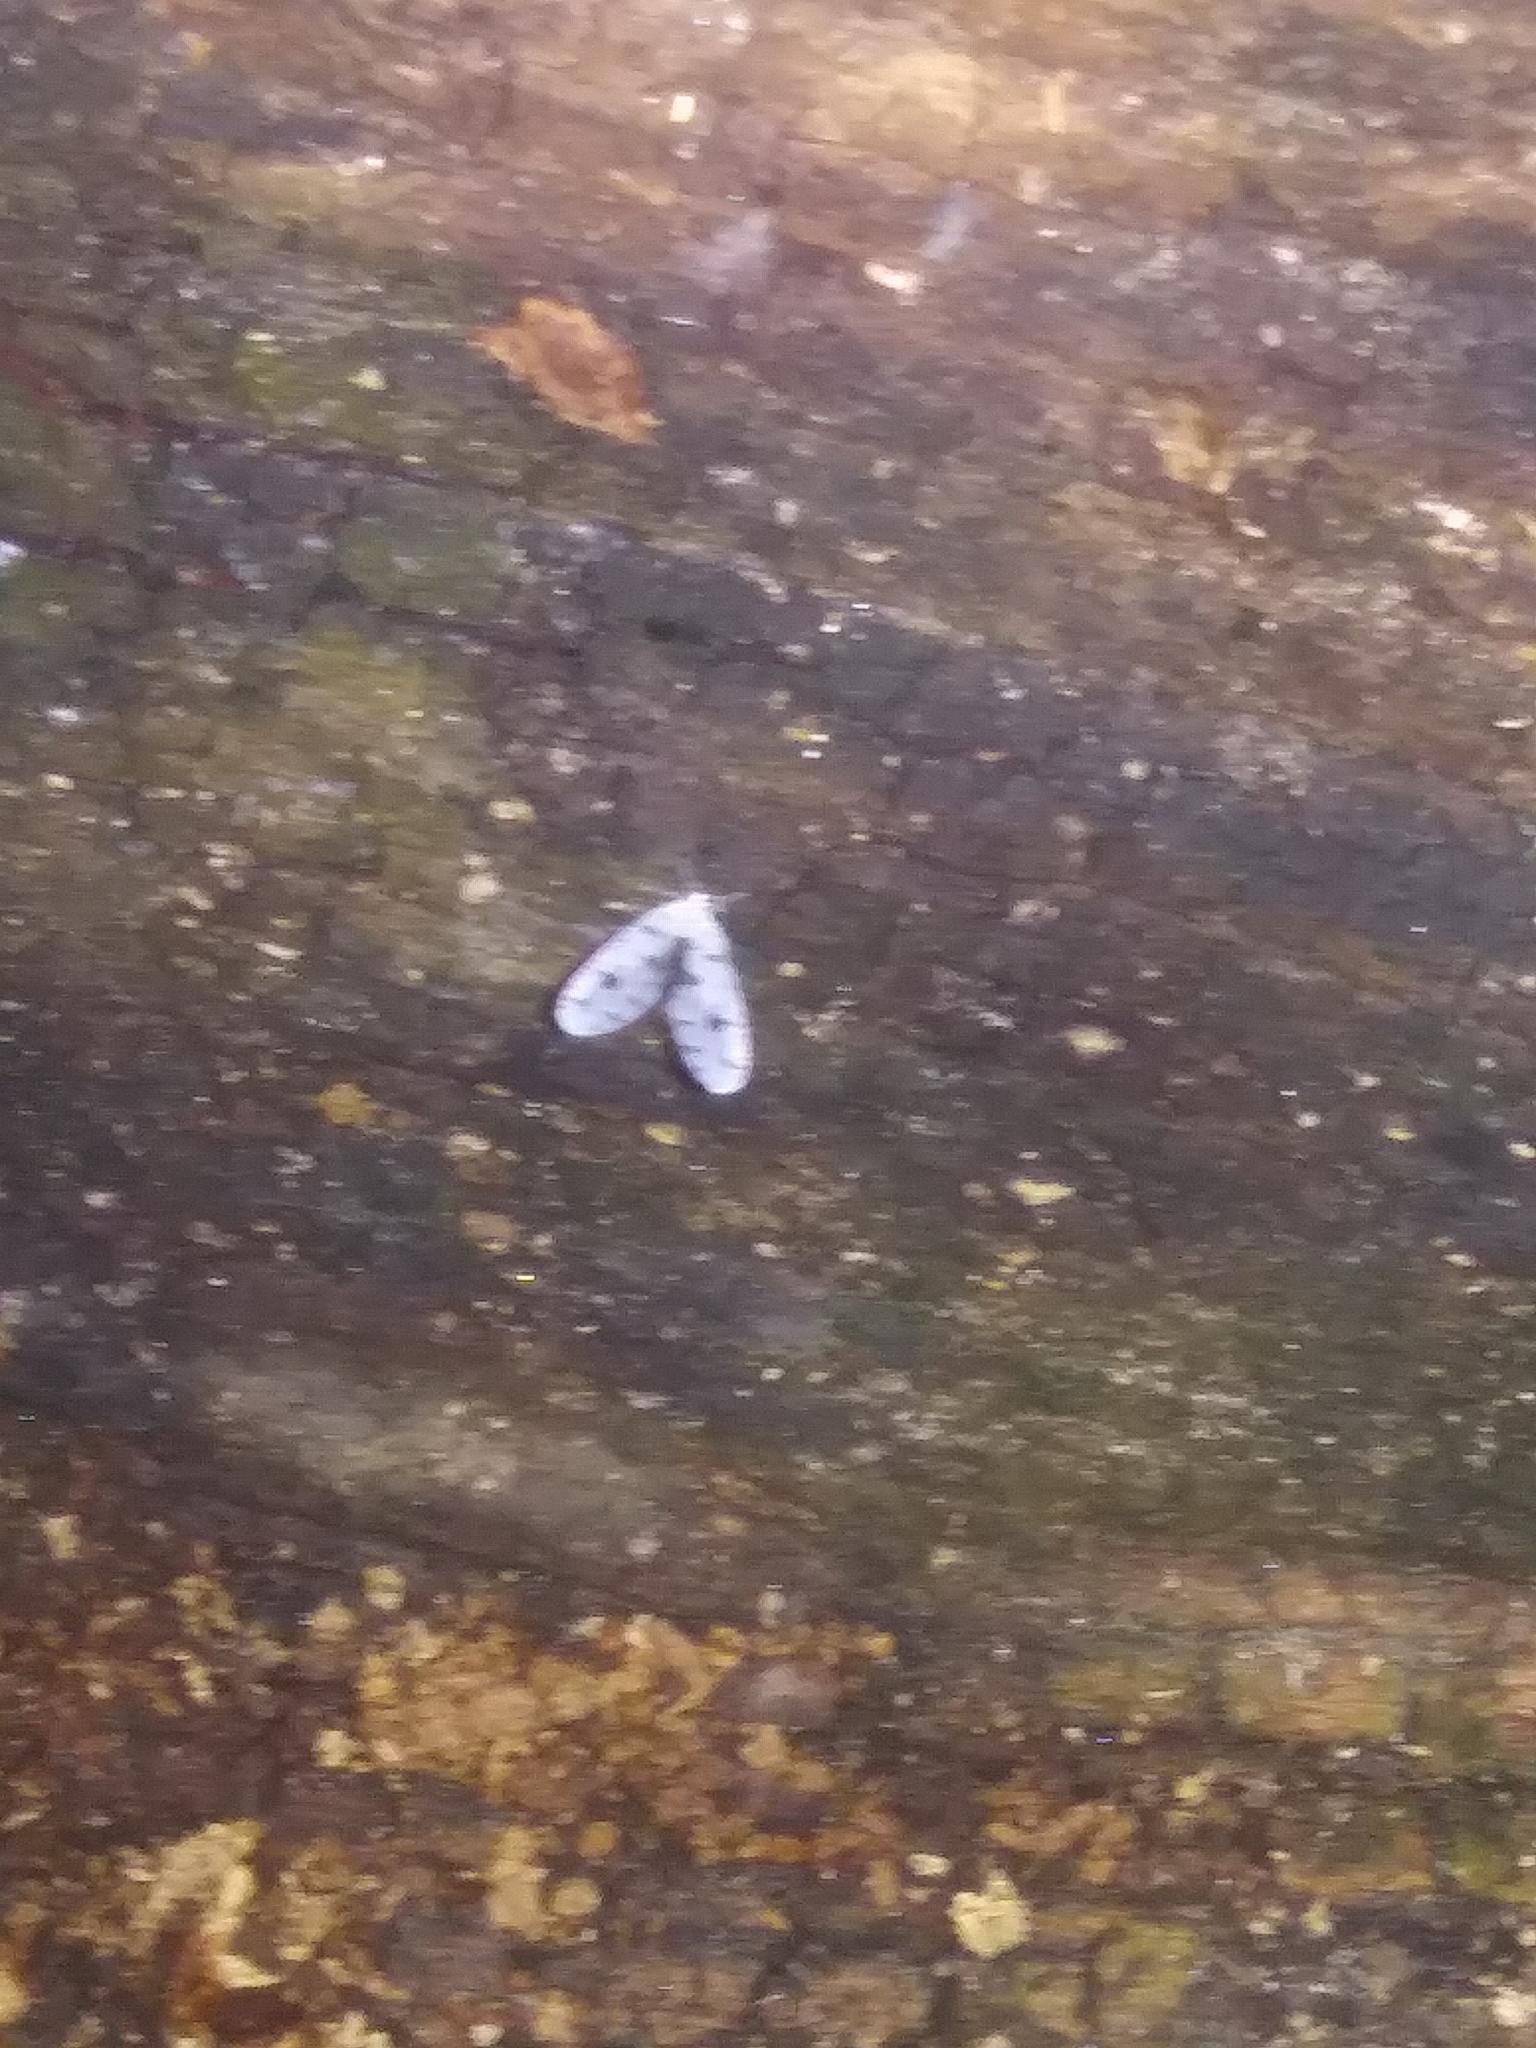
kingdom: Animalia
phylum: Arthropoda
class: Insecta
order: Hemiptera
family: Derbidae
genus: Sikaiana
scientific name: Sikaiana harti
